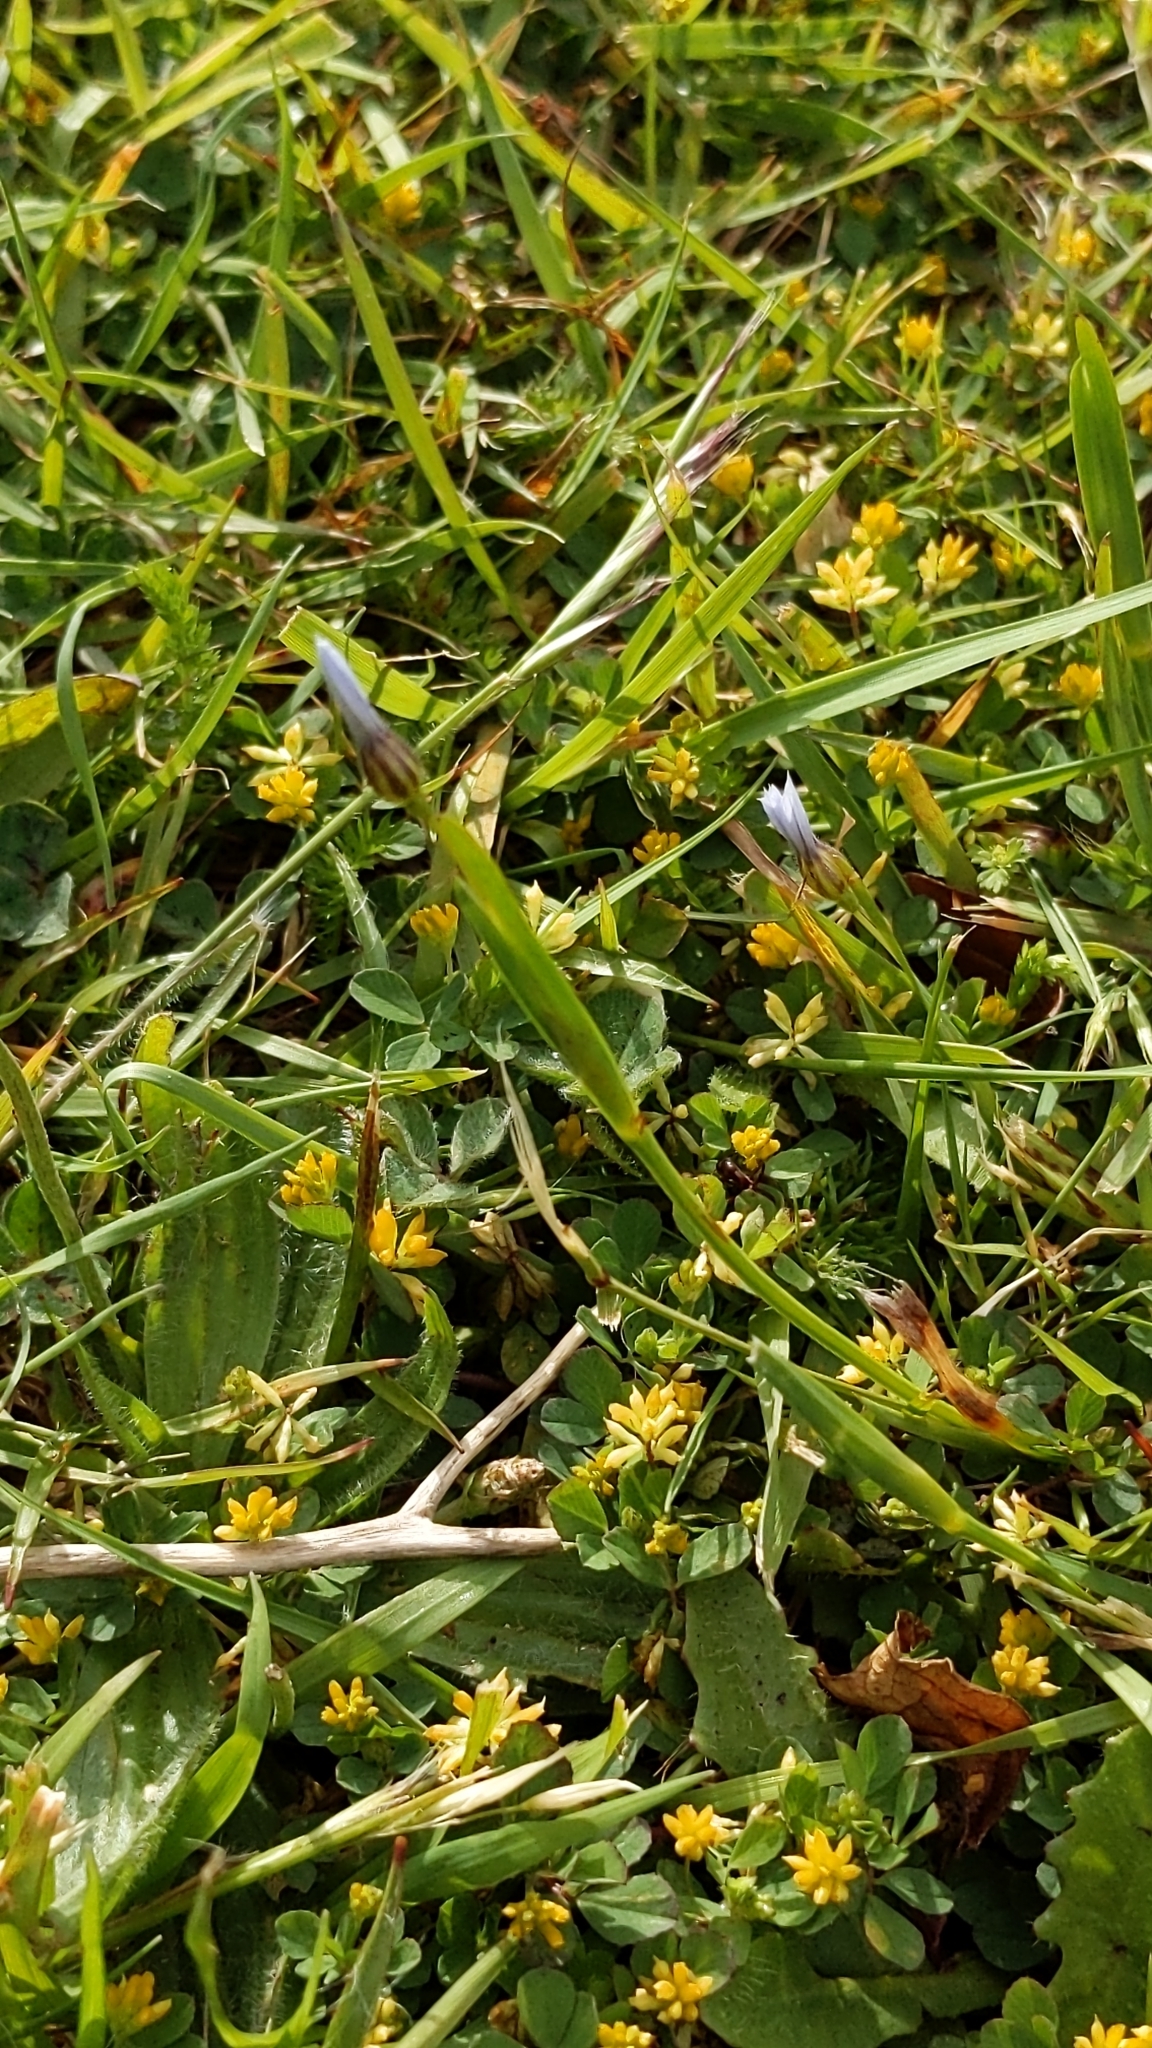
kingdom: Plantae
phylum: Tracheophyta
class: Liliopsida
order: Asparagales
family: Iridaceae
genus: Sisyrinchium
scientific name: Sisyrinchium micranthum
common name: Bermuda pigroot
